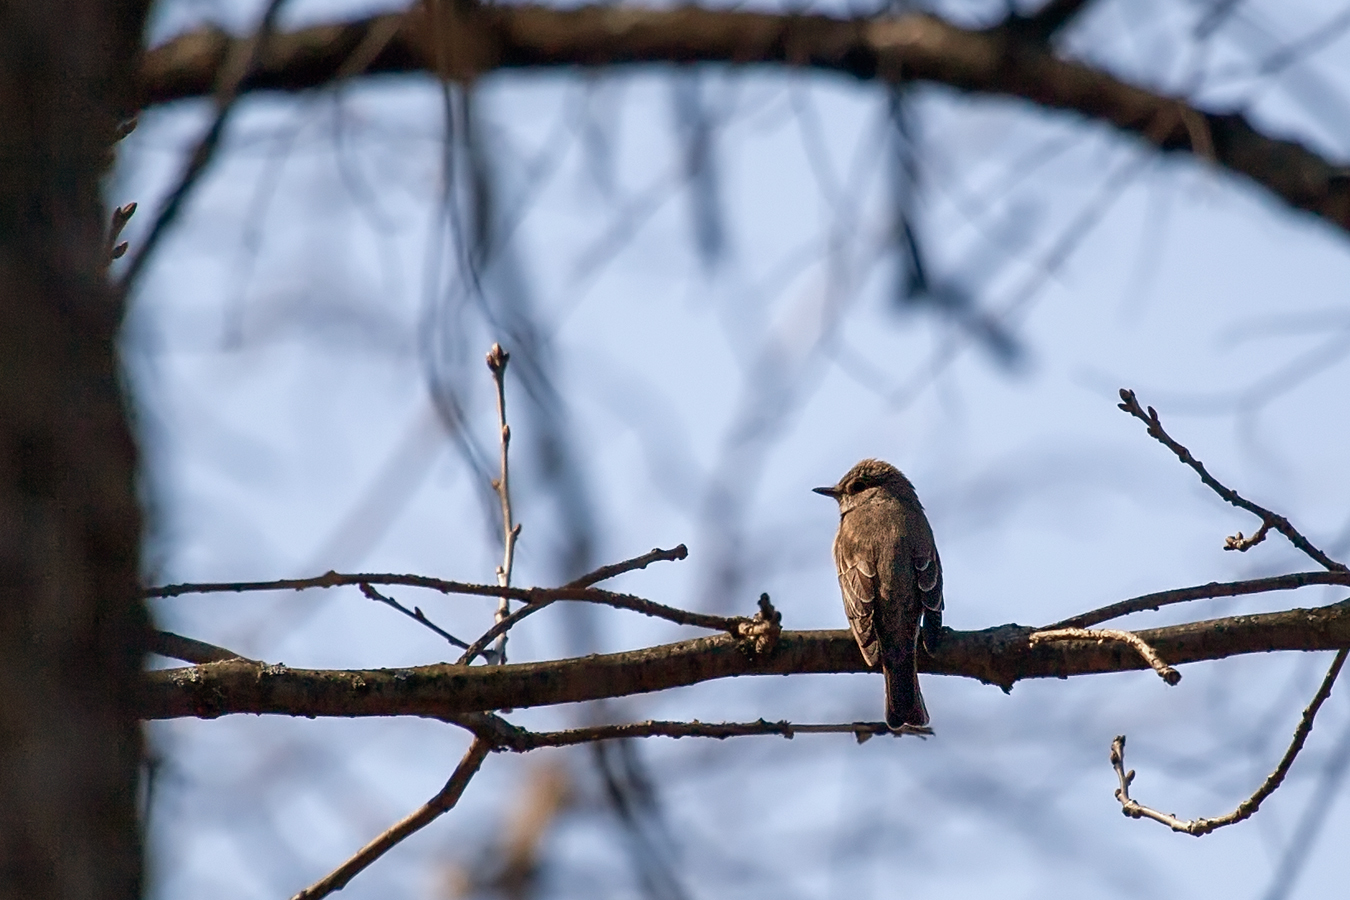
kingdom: Animalia
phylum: Chordata
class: Aves
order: Passeriformes
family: Muscicapidae
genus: Muscicapa
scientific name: Muscicapa striata
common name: Spotted flycatcher
